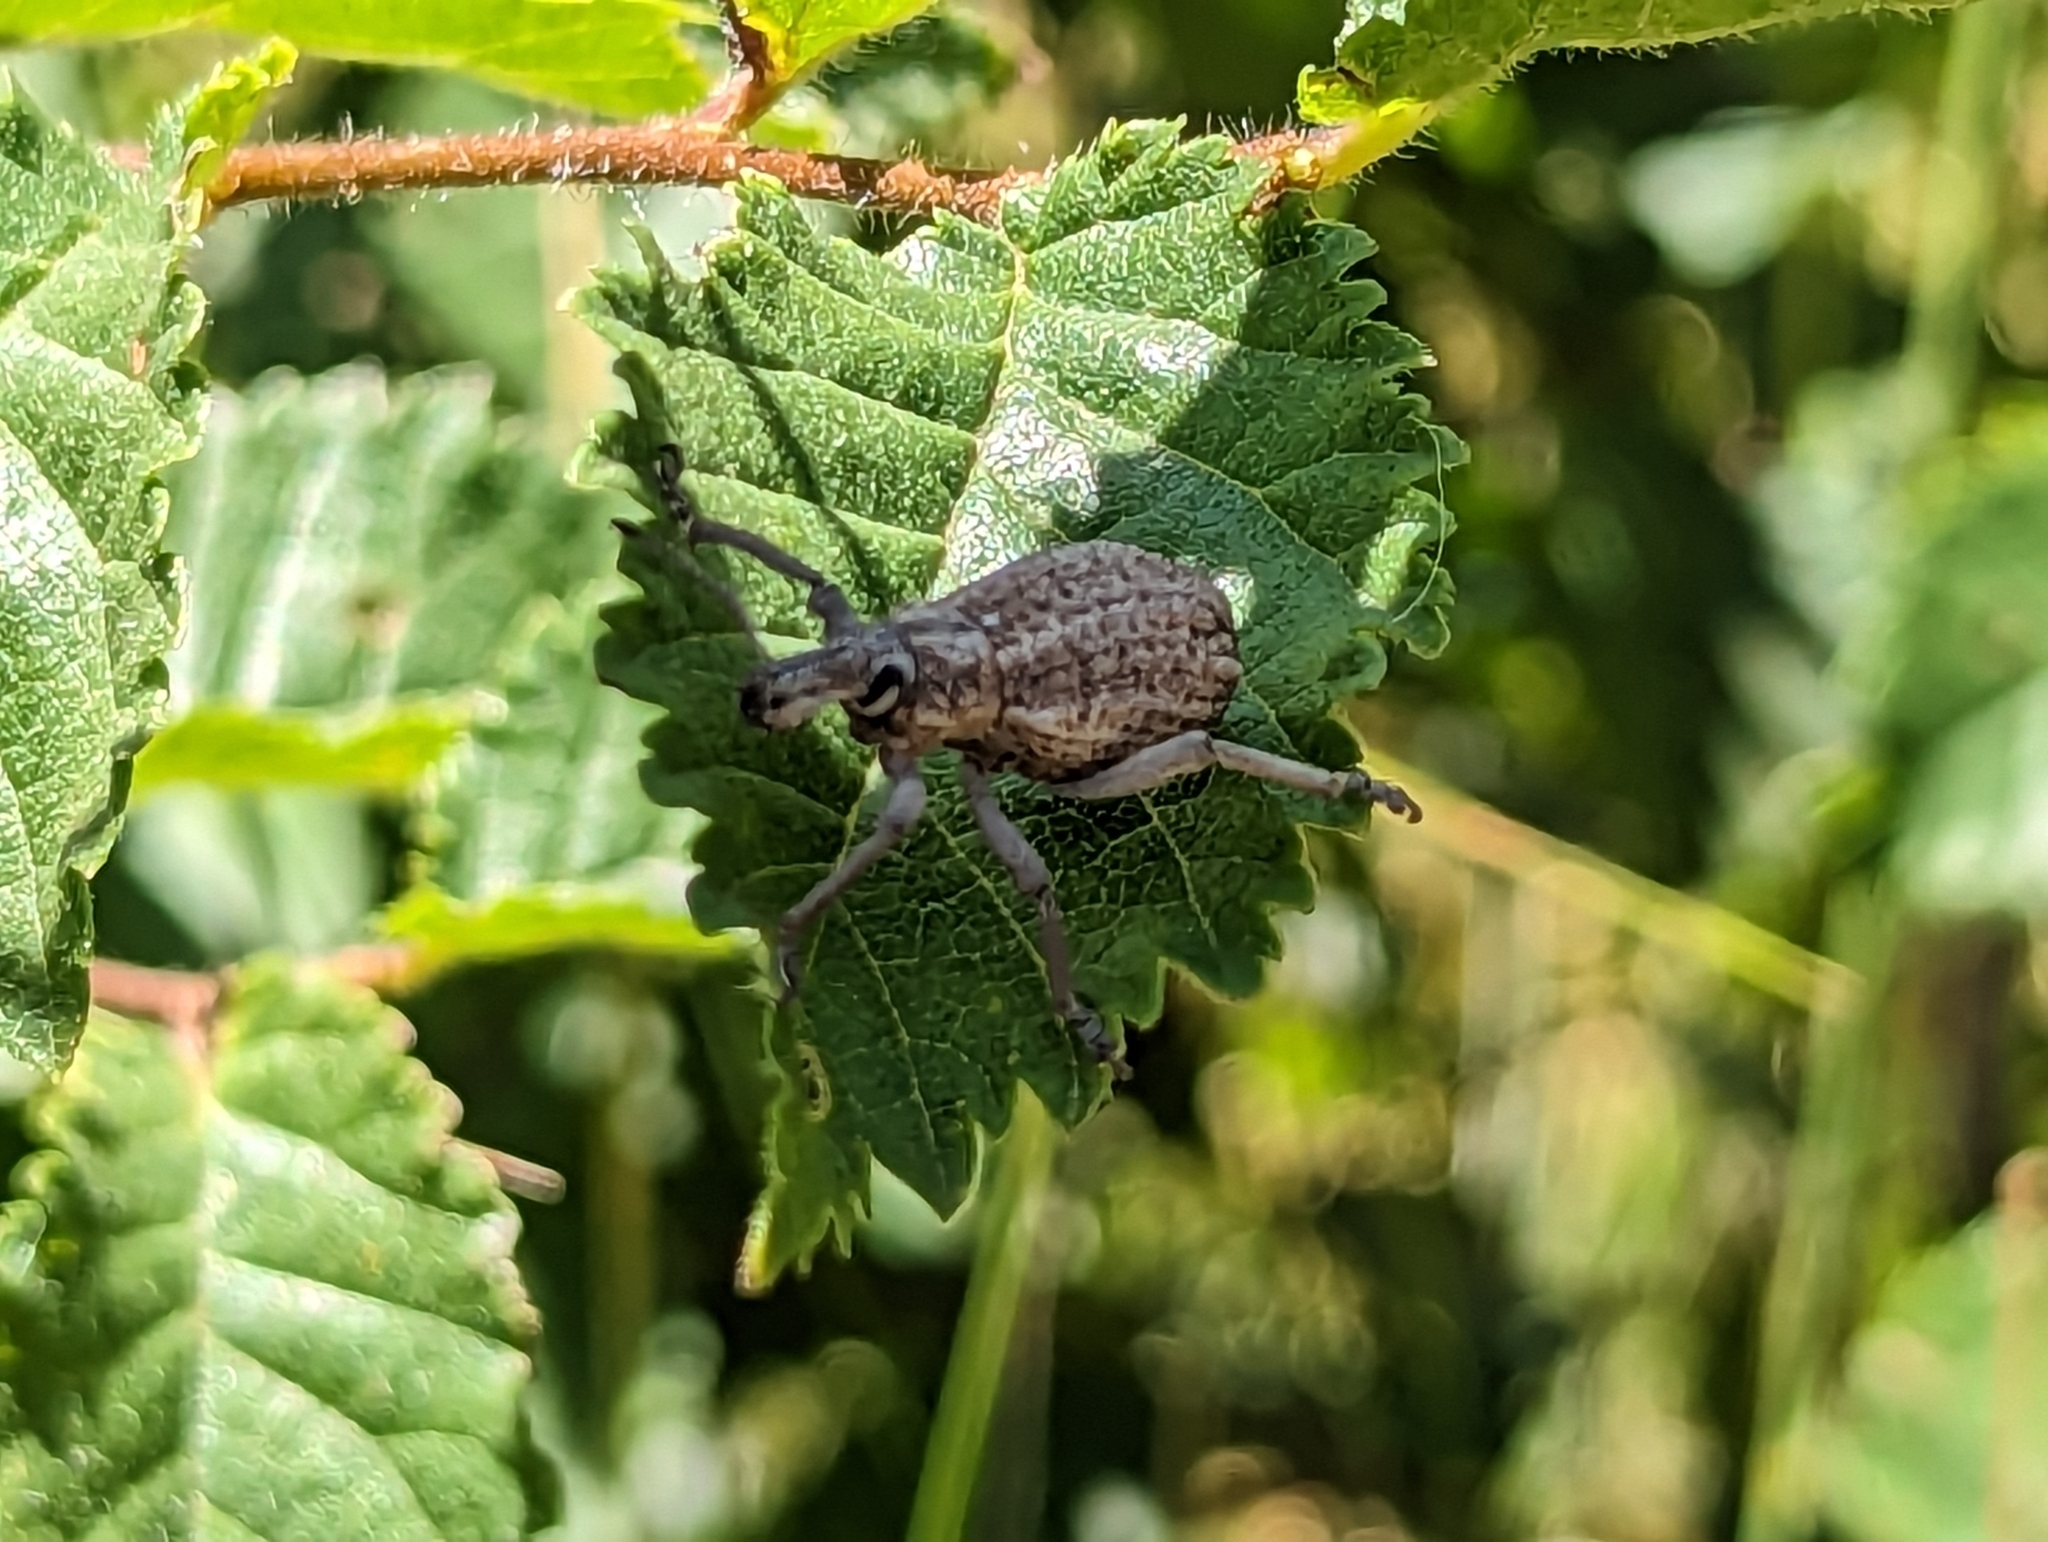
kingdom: Animalia
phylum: Arthropoda
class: Insecta
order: Coleoptera
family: Curculionidae
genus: Leptopius
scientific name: Leptopius robustus
